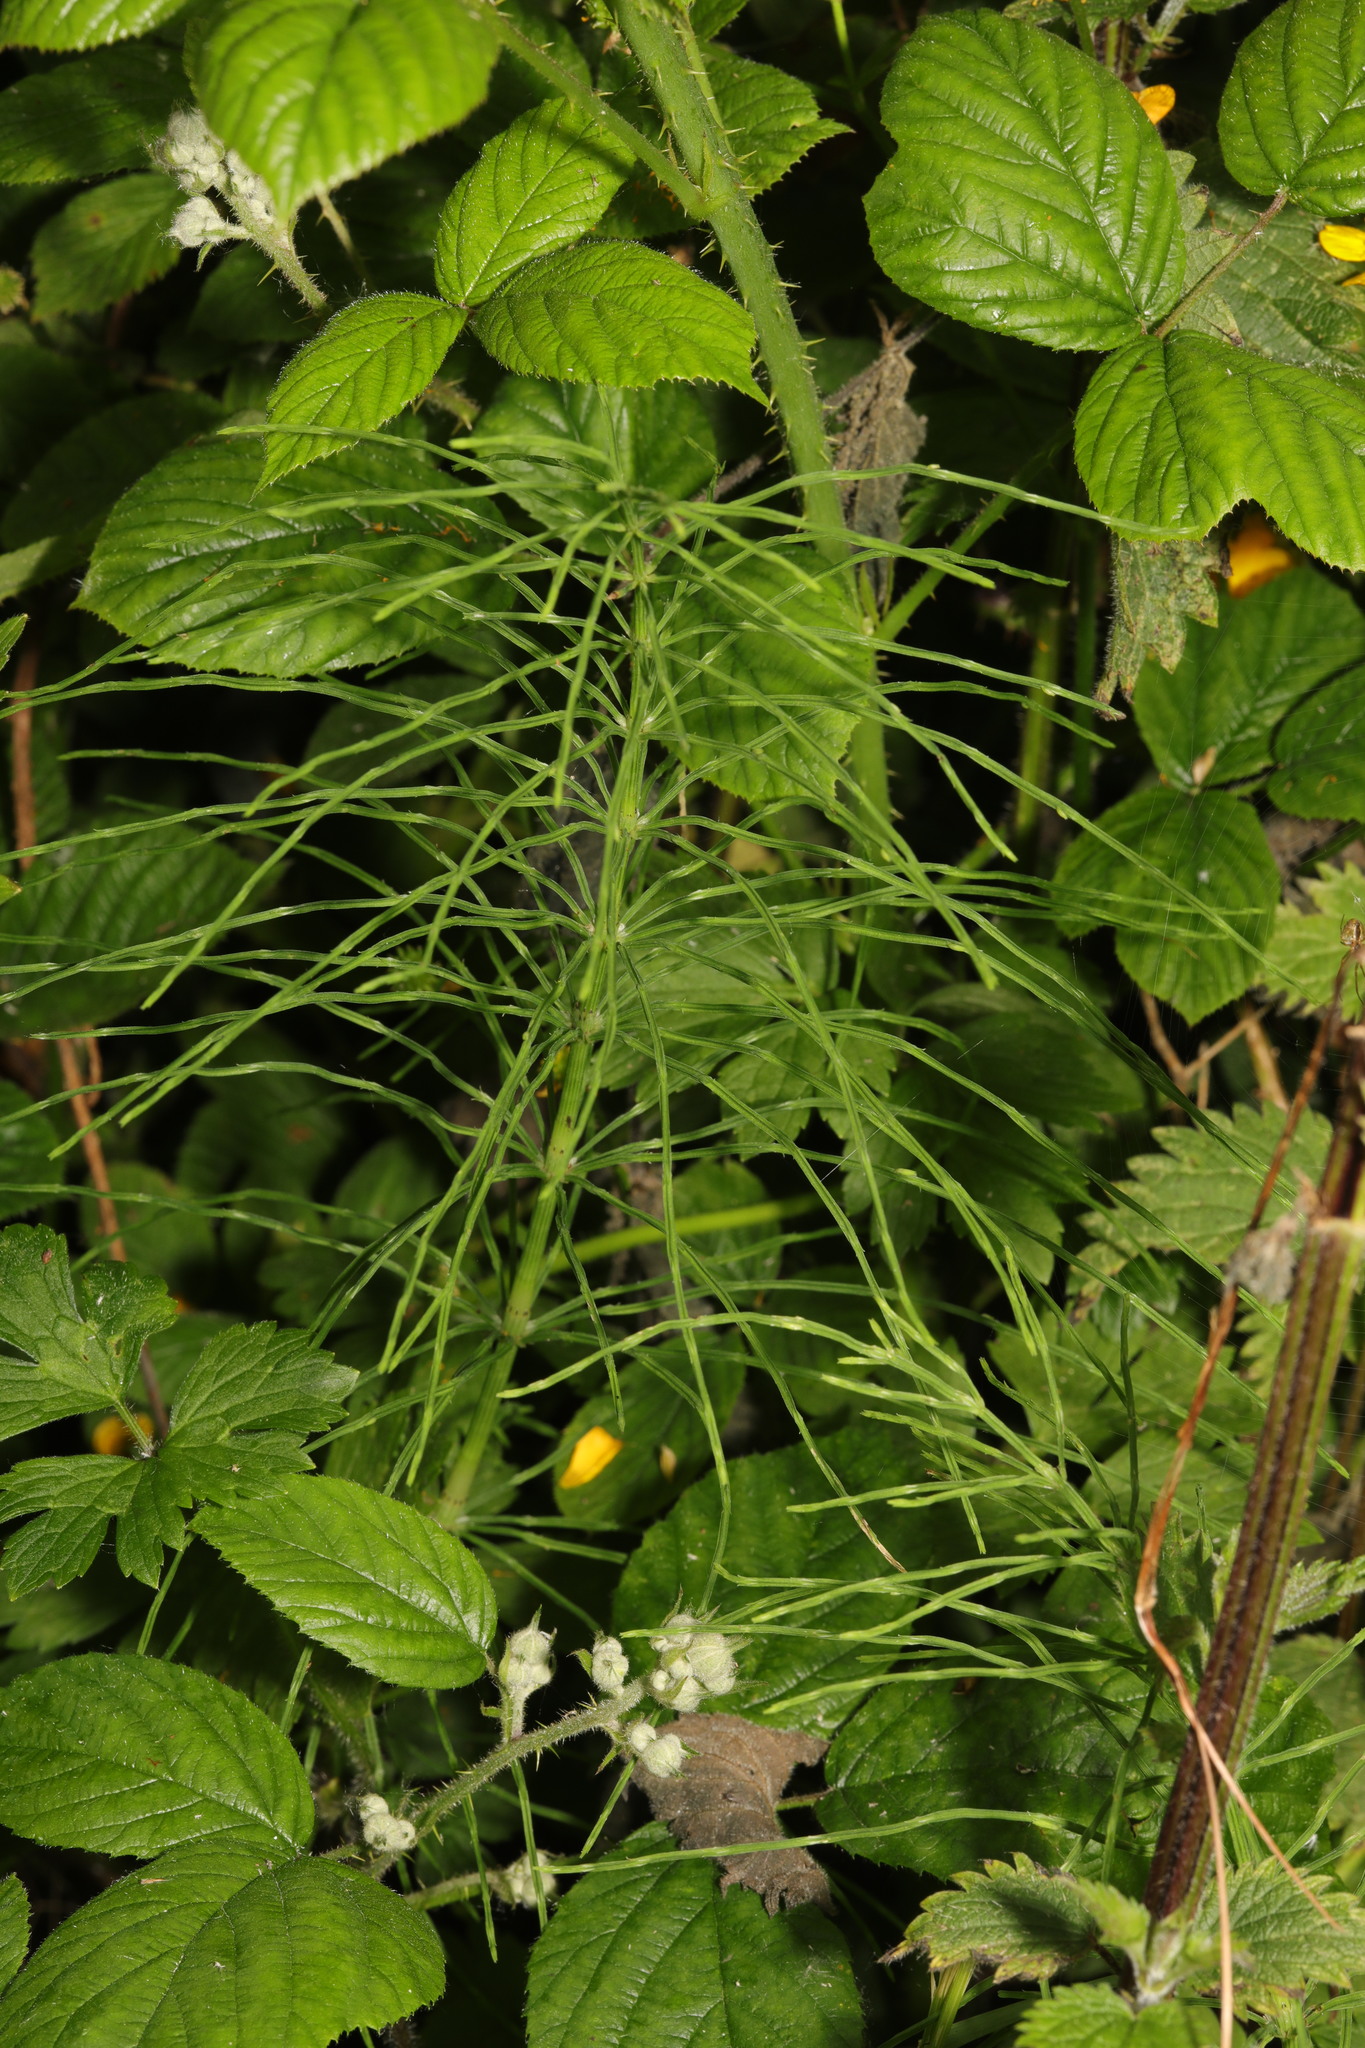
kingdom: Plantae
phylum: Tracheophyta
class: Polypodiopsida
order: Equisetales
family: Equisetaceae
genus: Equisetum
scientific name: Equisetum arvense
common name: Field horsetail
